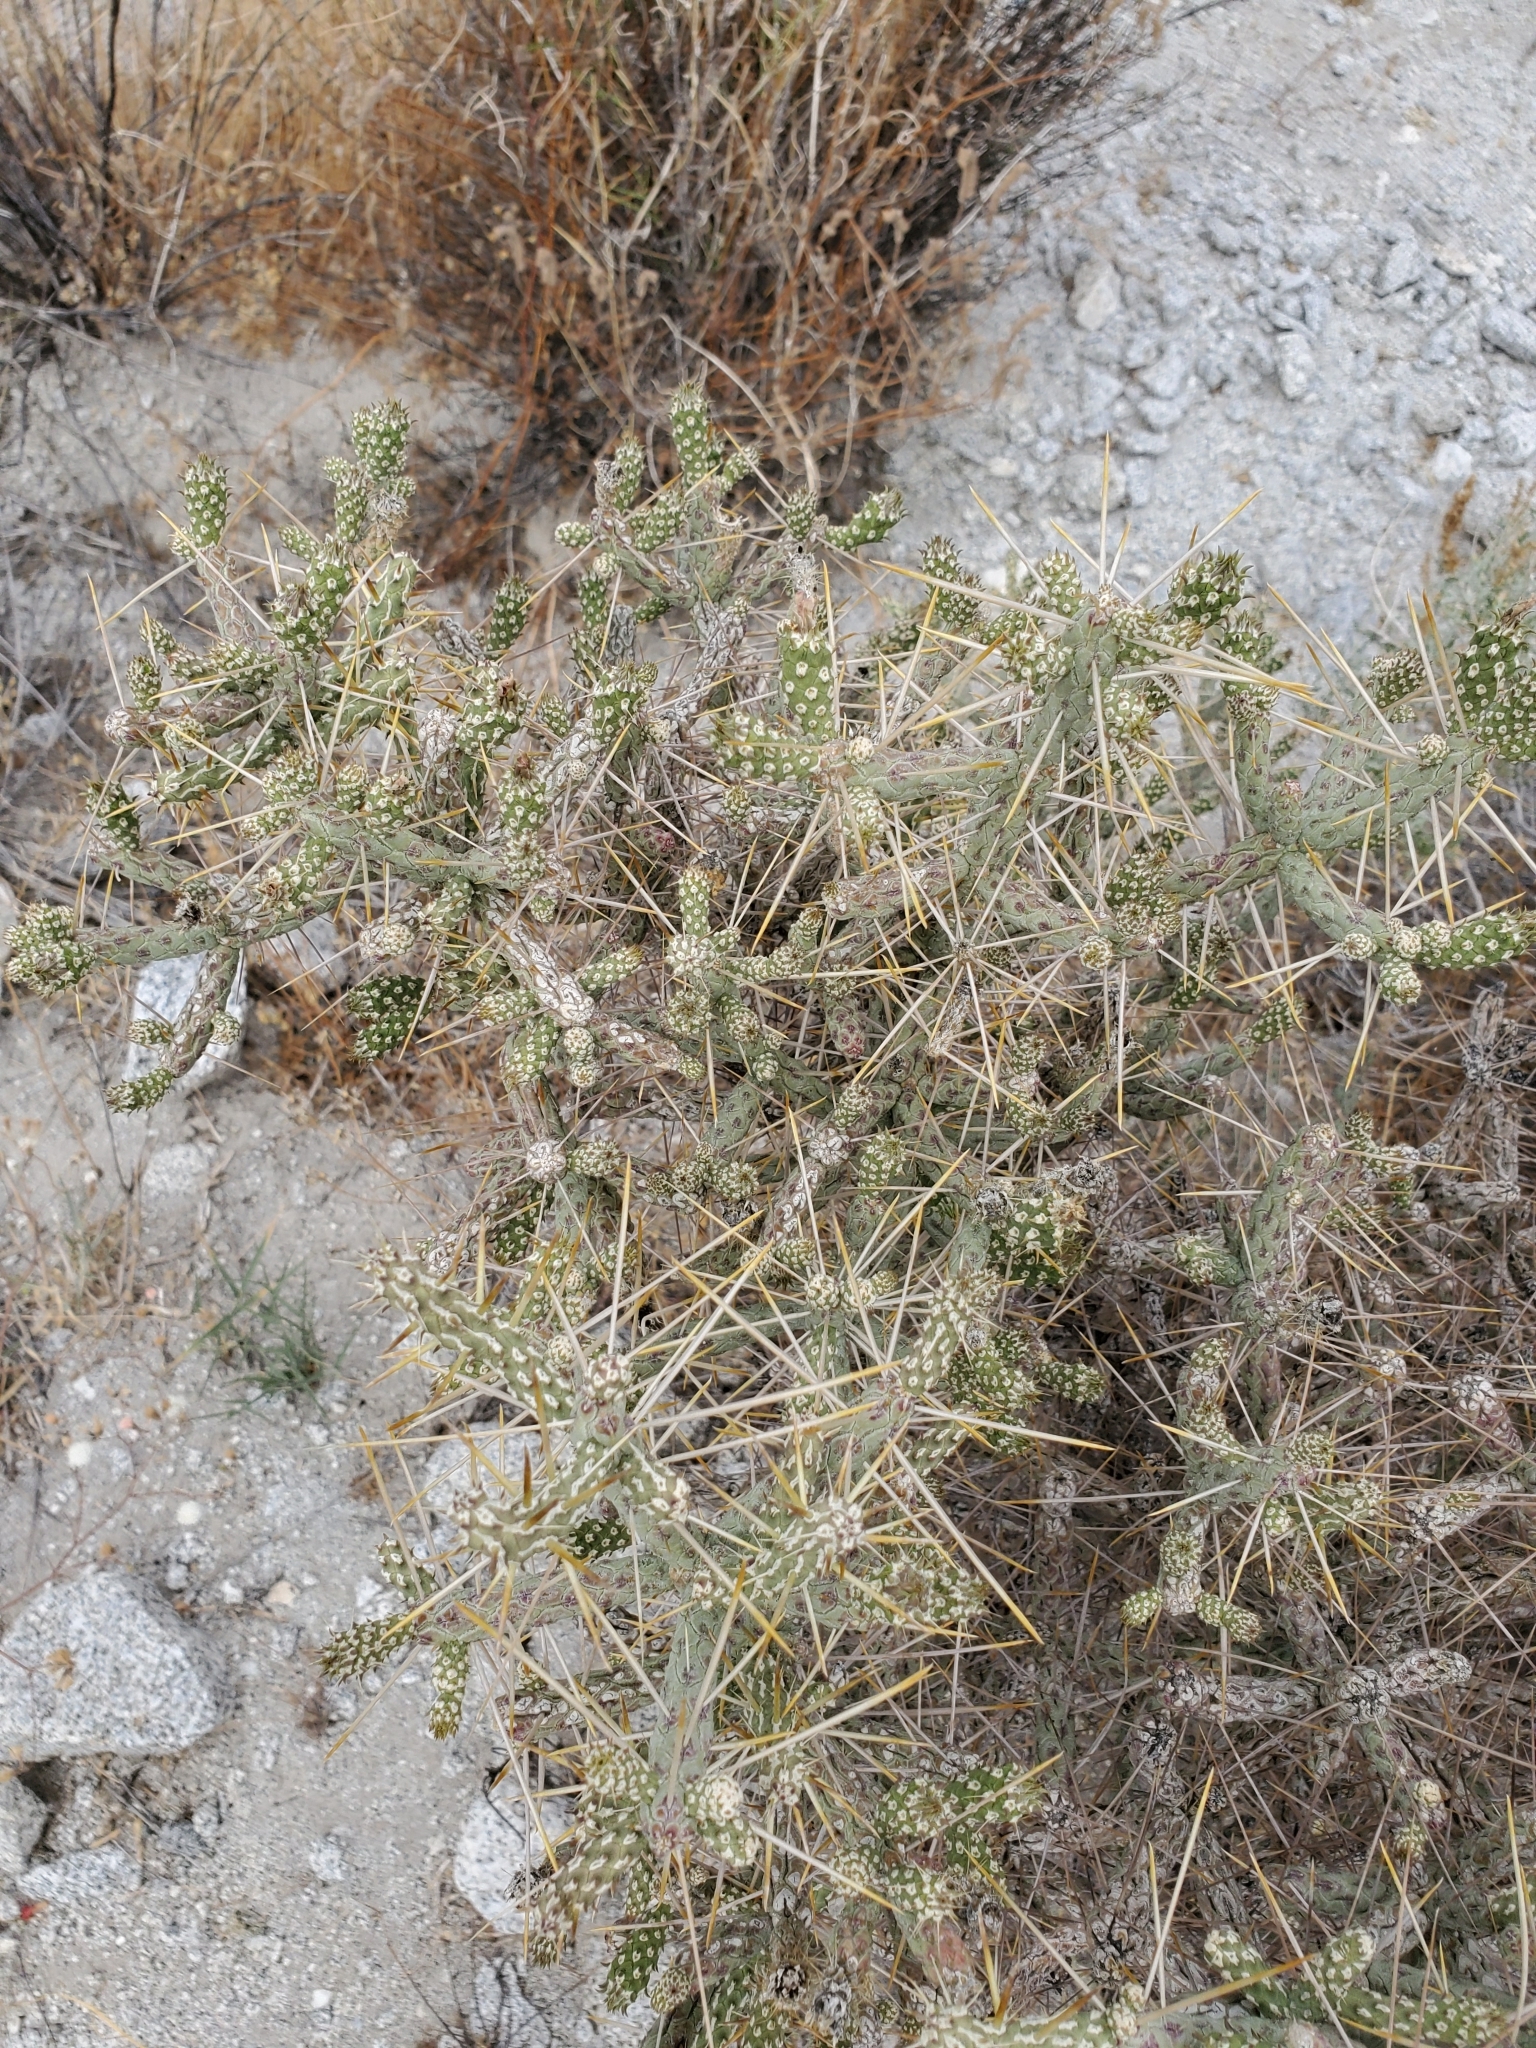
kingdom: Plantae
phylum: Tracheophyta
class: Magnoliopsida
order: Caryophyllales
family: Cactaceae
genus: Cylindropuntia
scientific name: Cylindropuntia ramosissima
